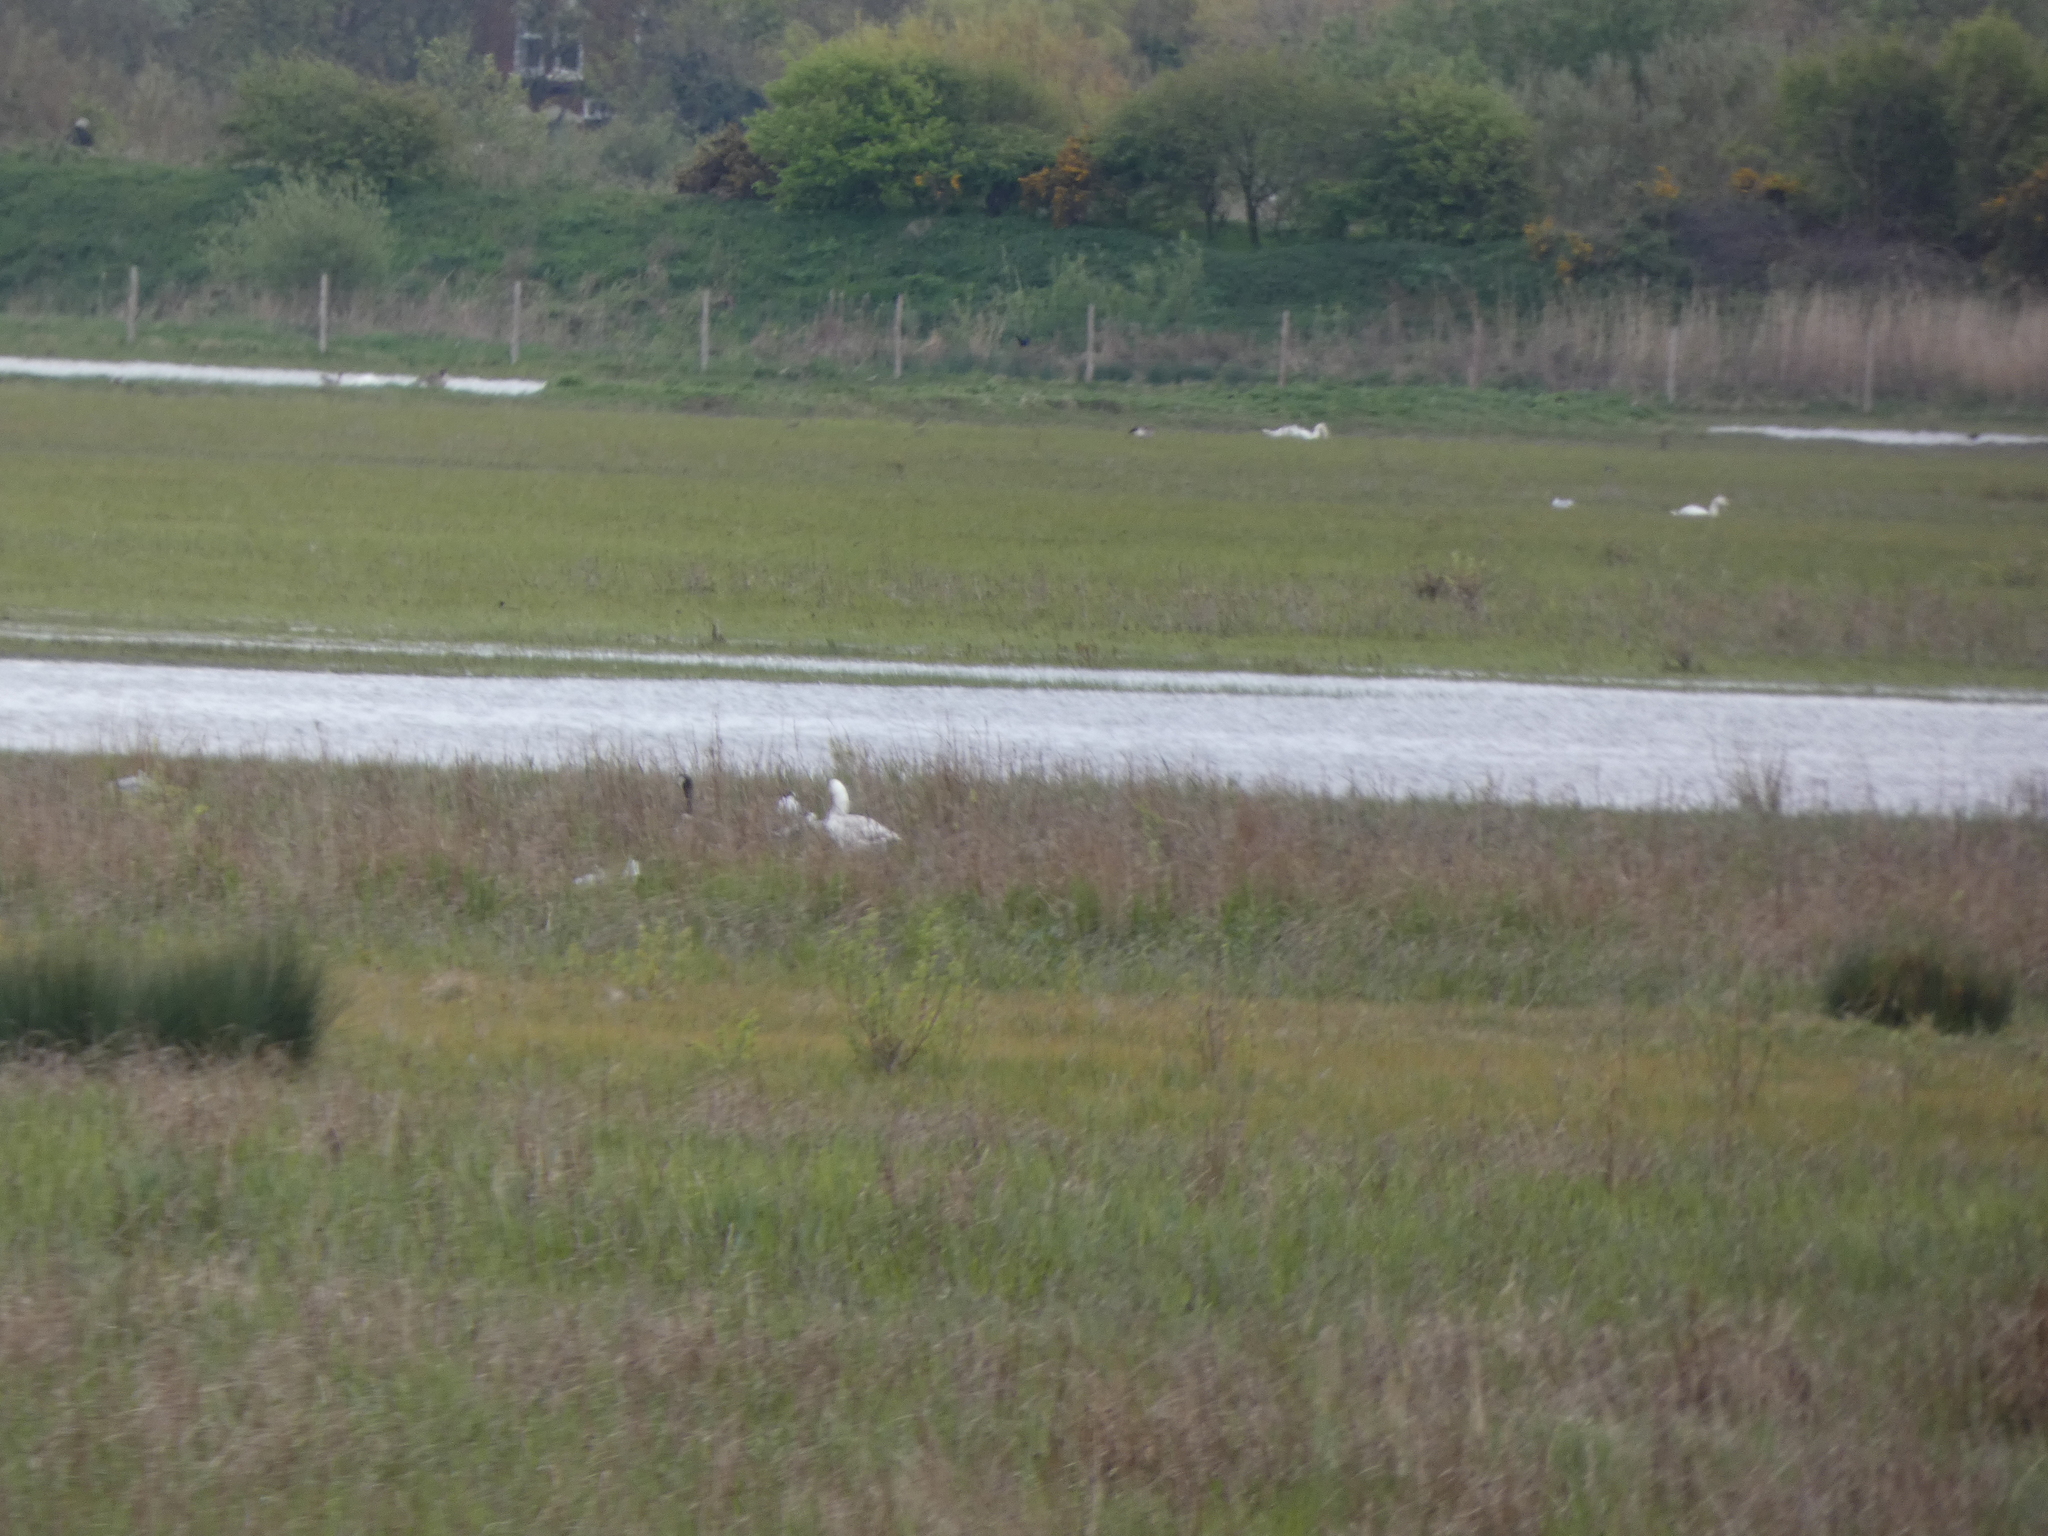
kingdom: Animalia
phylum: Chordata
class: Aves
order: Anseriformes
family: Anatidae
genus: Anser
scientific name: Anser anser
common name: Greylag goose
